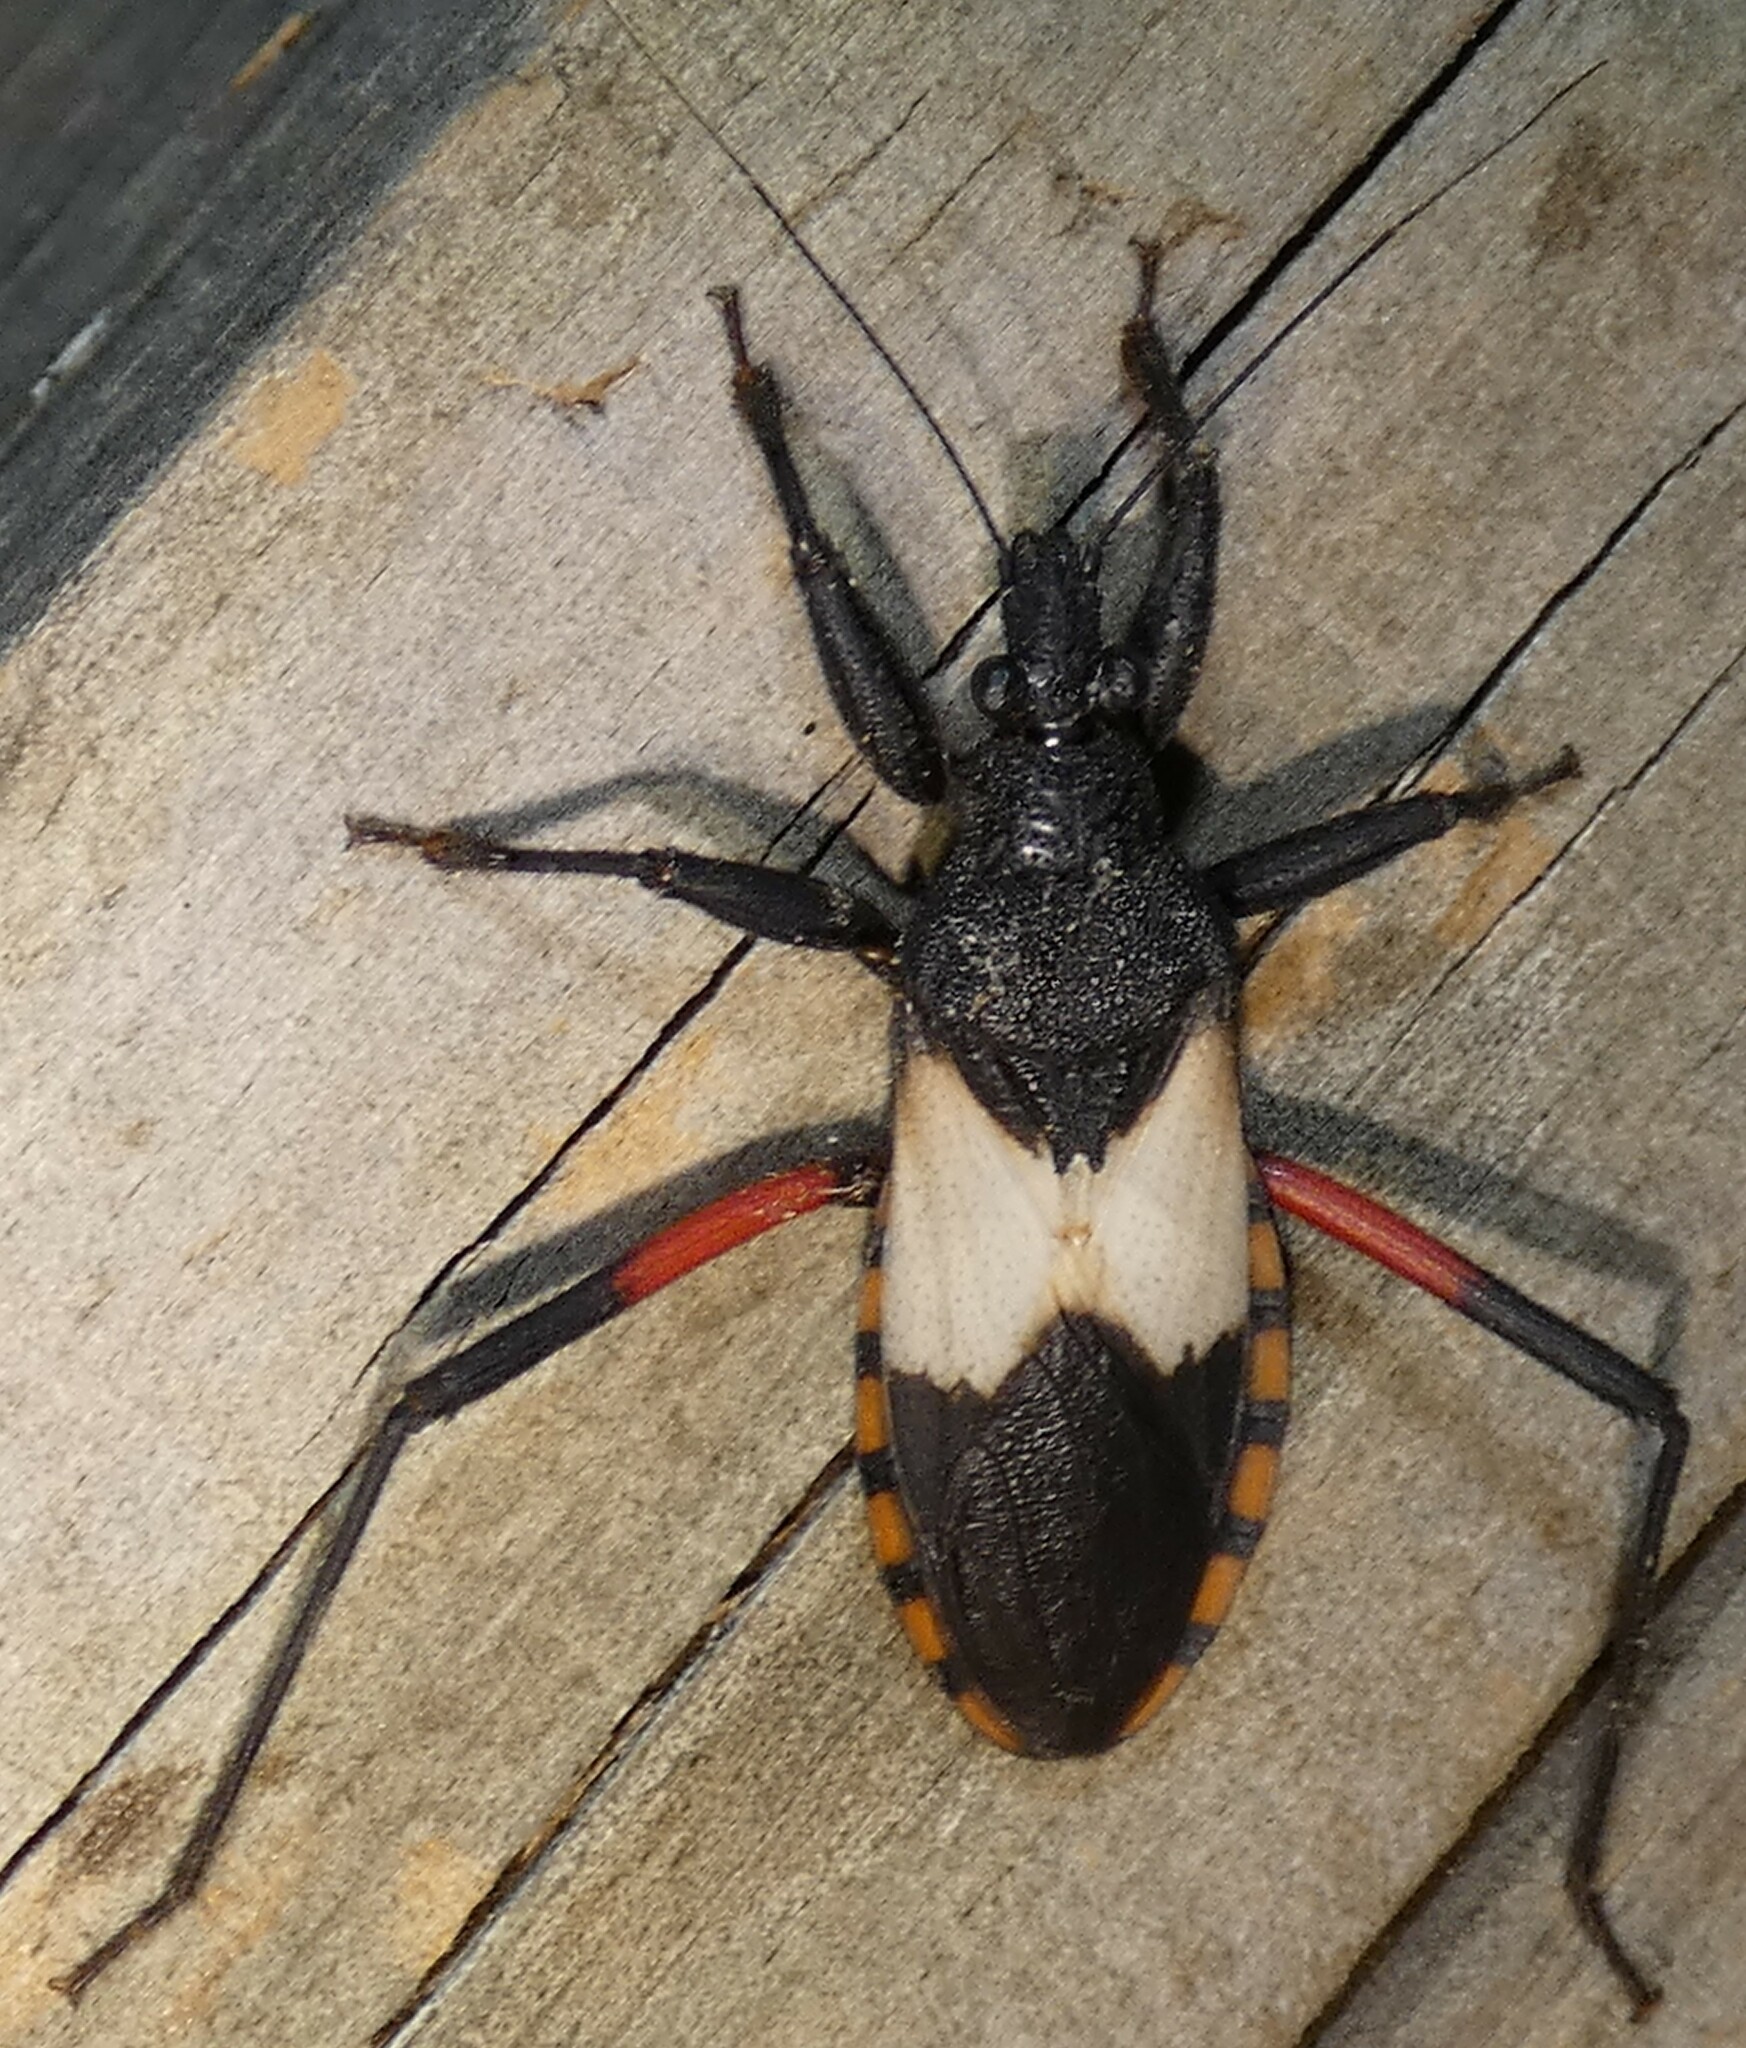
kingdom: Animalia
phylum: Arthropoda
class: Insecta
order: Hemiptera
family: Reduviidae
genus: Microtomus
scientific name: Microtomus purcis
